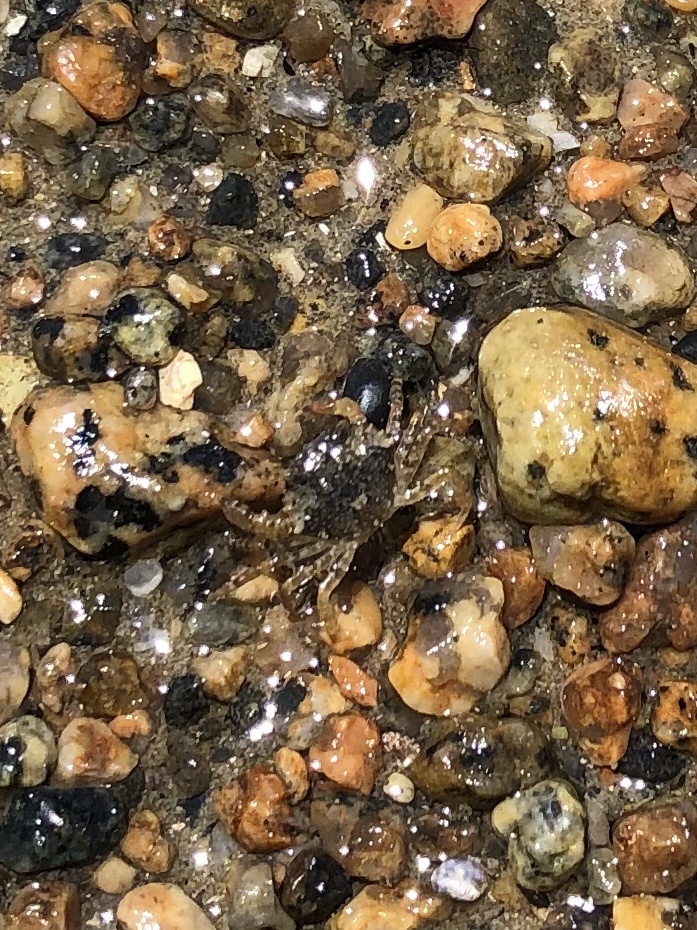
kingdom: Animalia
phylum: Arthropoda
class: Malacostraca
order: Decapoda
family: Carcinidae
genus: Carcinus
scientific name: Carcinus maenas
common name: European green crab
